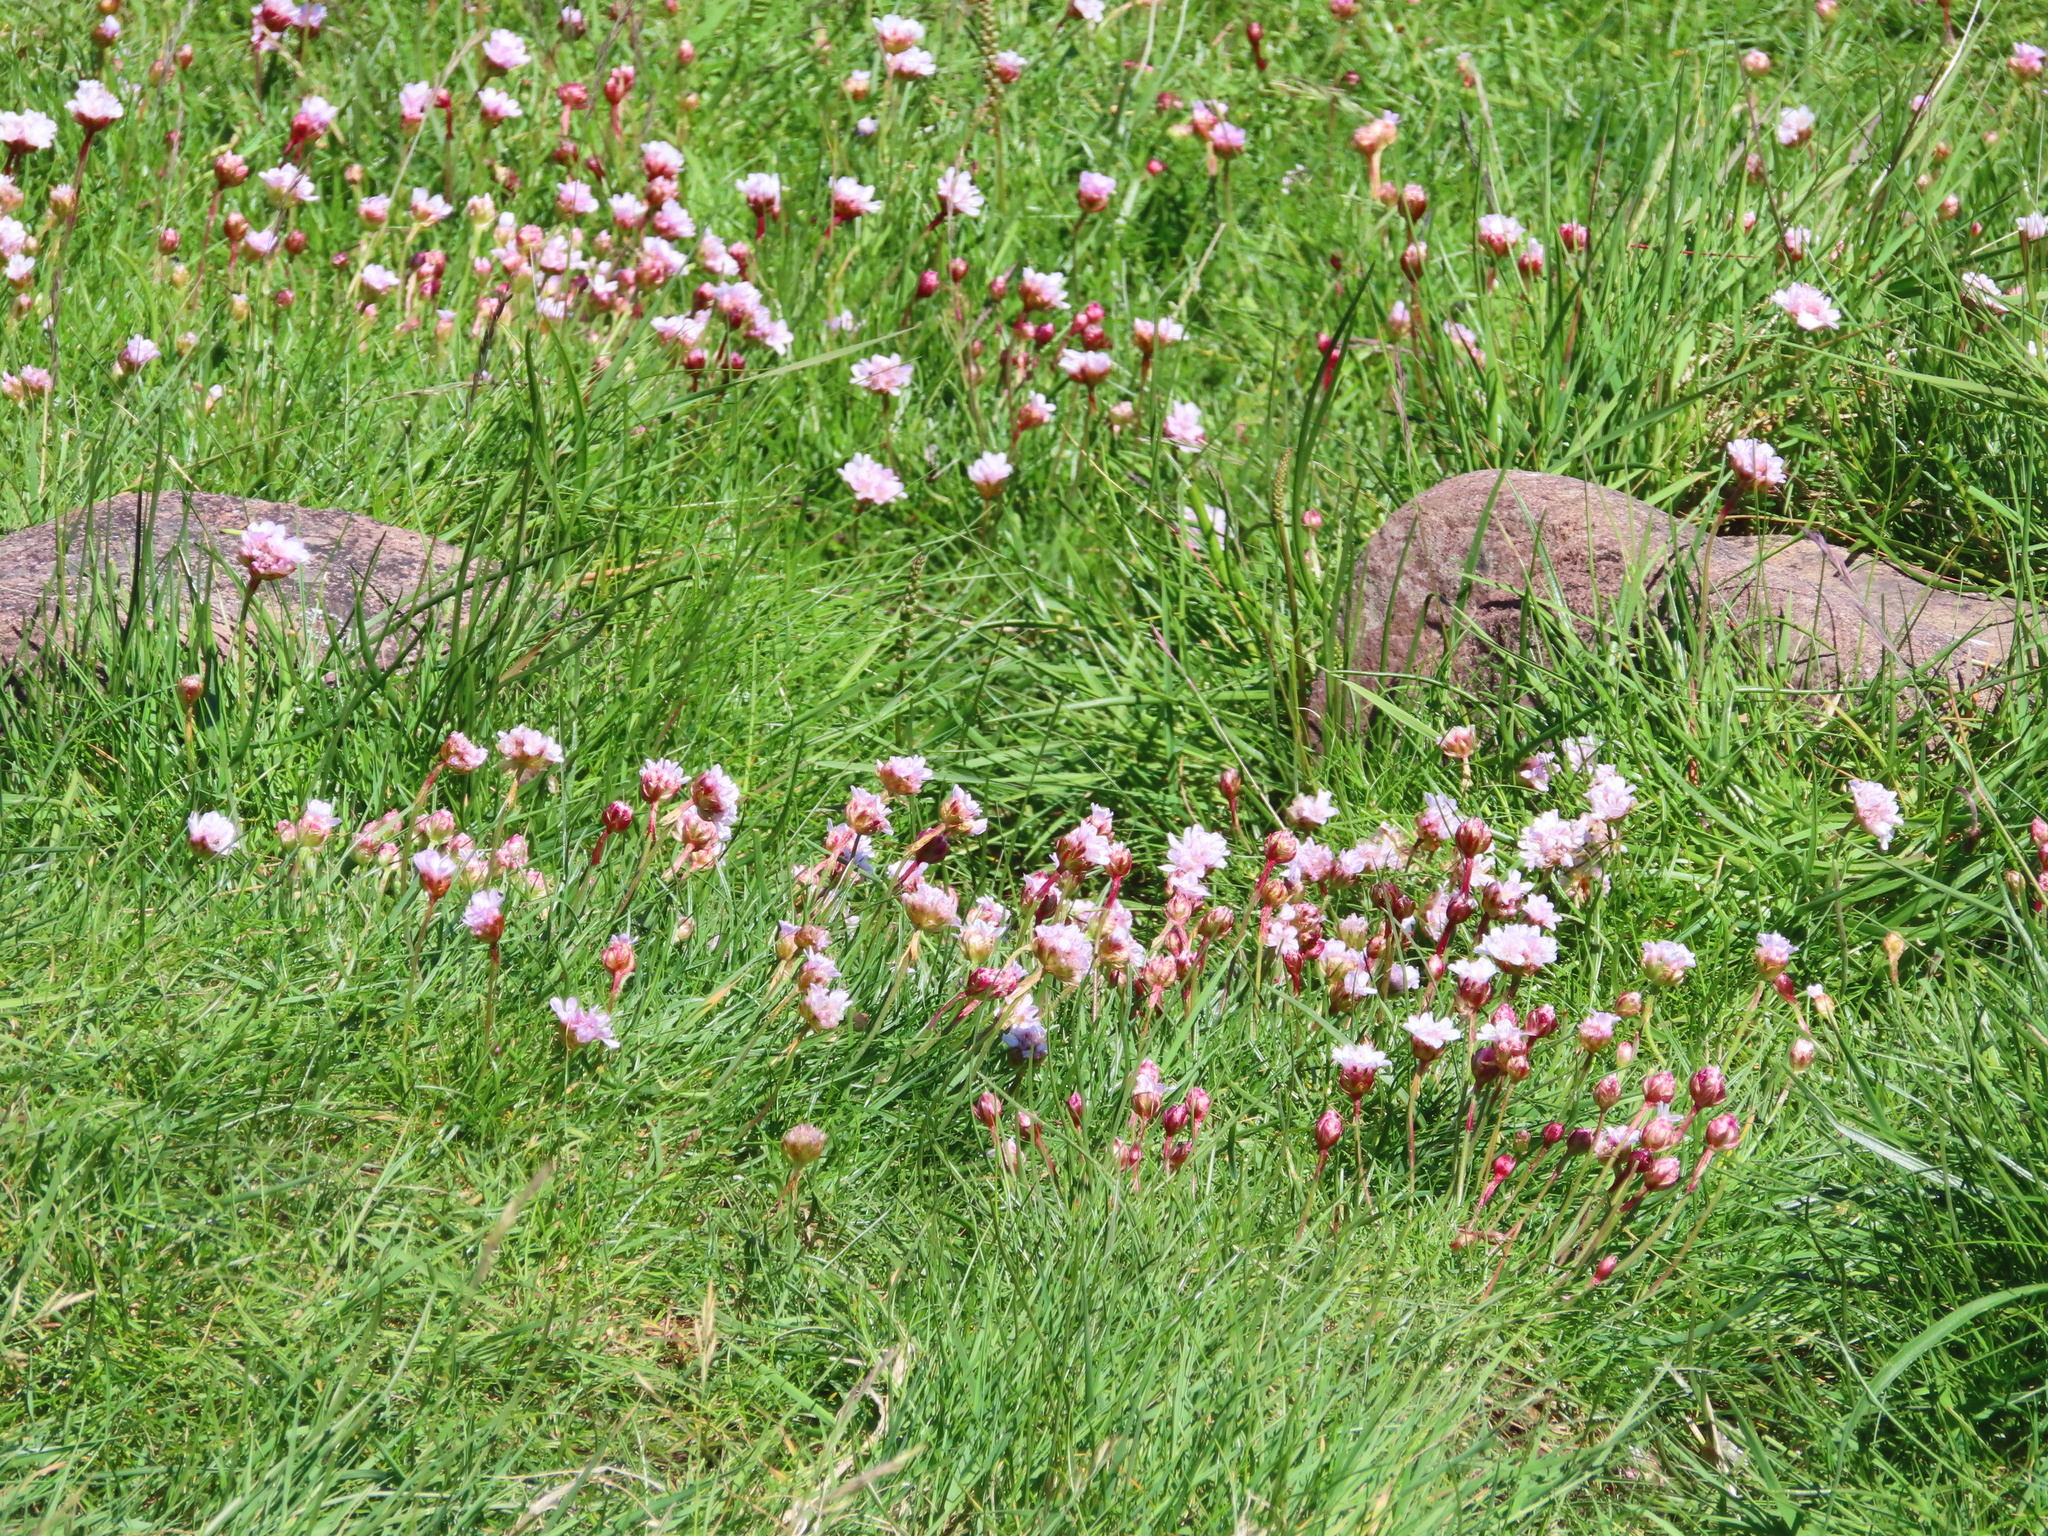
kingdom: Plantae
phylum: Tracheophyta
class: Magnoliopsida
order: Caryophyllales
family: Plumbaginaceae
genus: Armeria
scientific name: Armeria maritima
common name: Thrift
